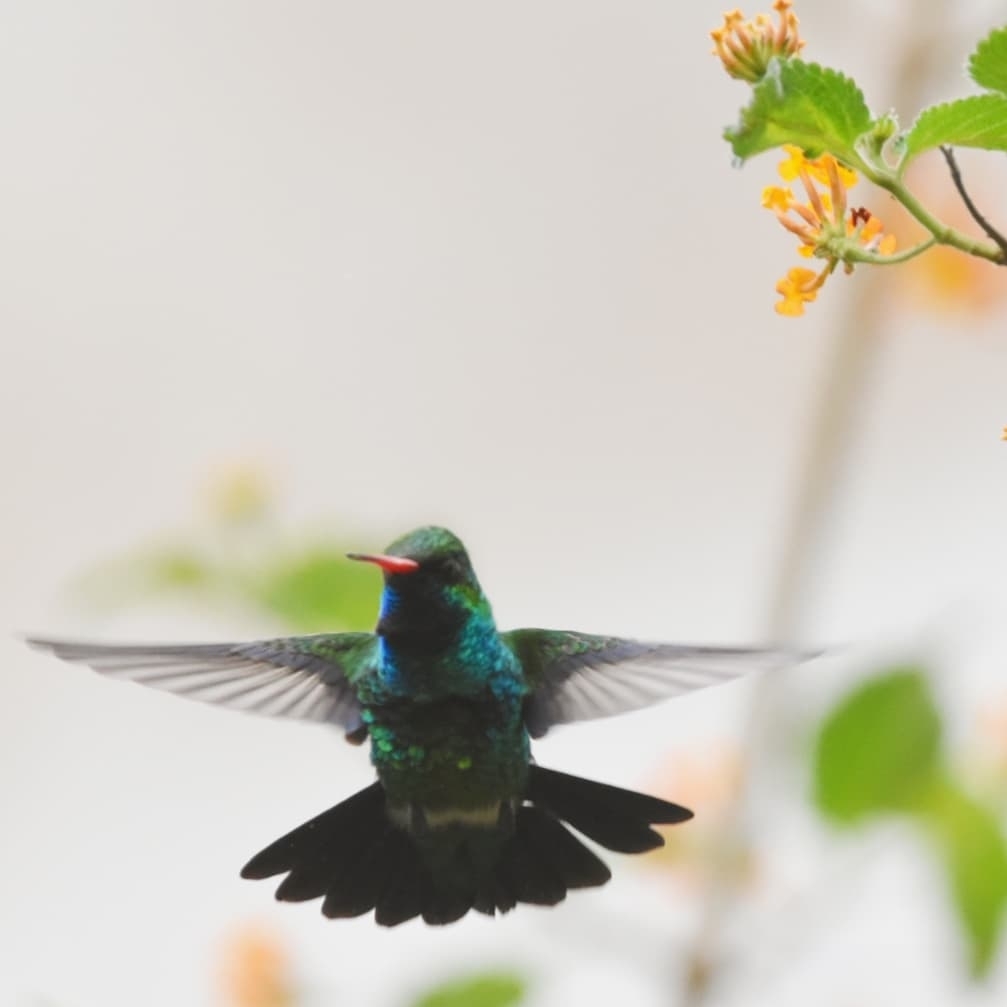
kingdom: Animalia
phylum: Chordata
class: Aves
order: Apodiformes
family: Trochilidae
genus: Chlorostilbon
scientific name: Chlorostilbon lucidus
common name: Glittering-bellied emerald
